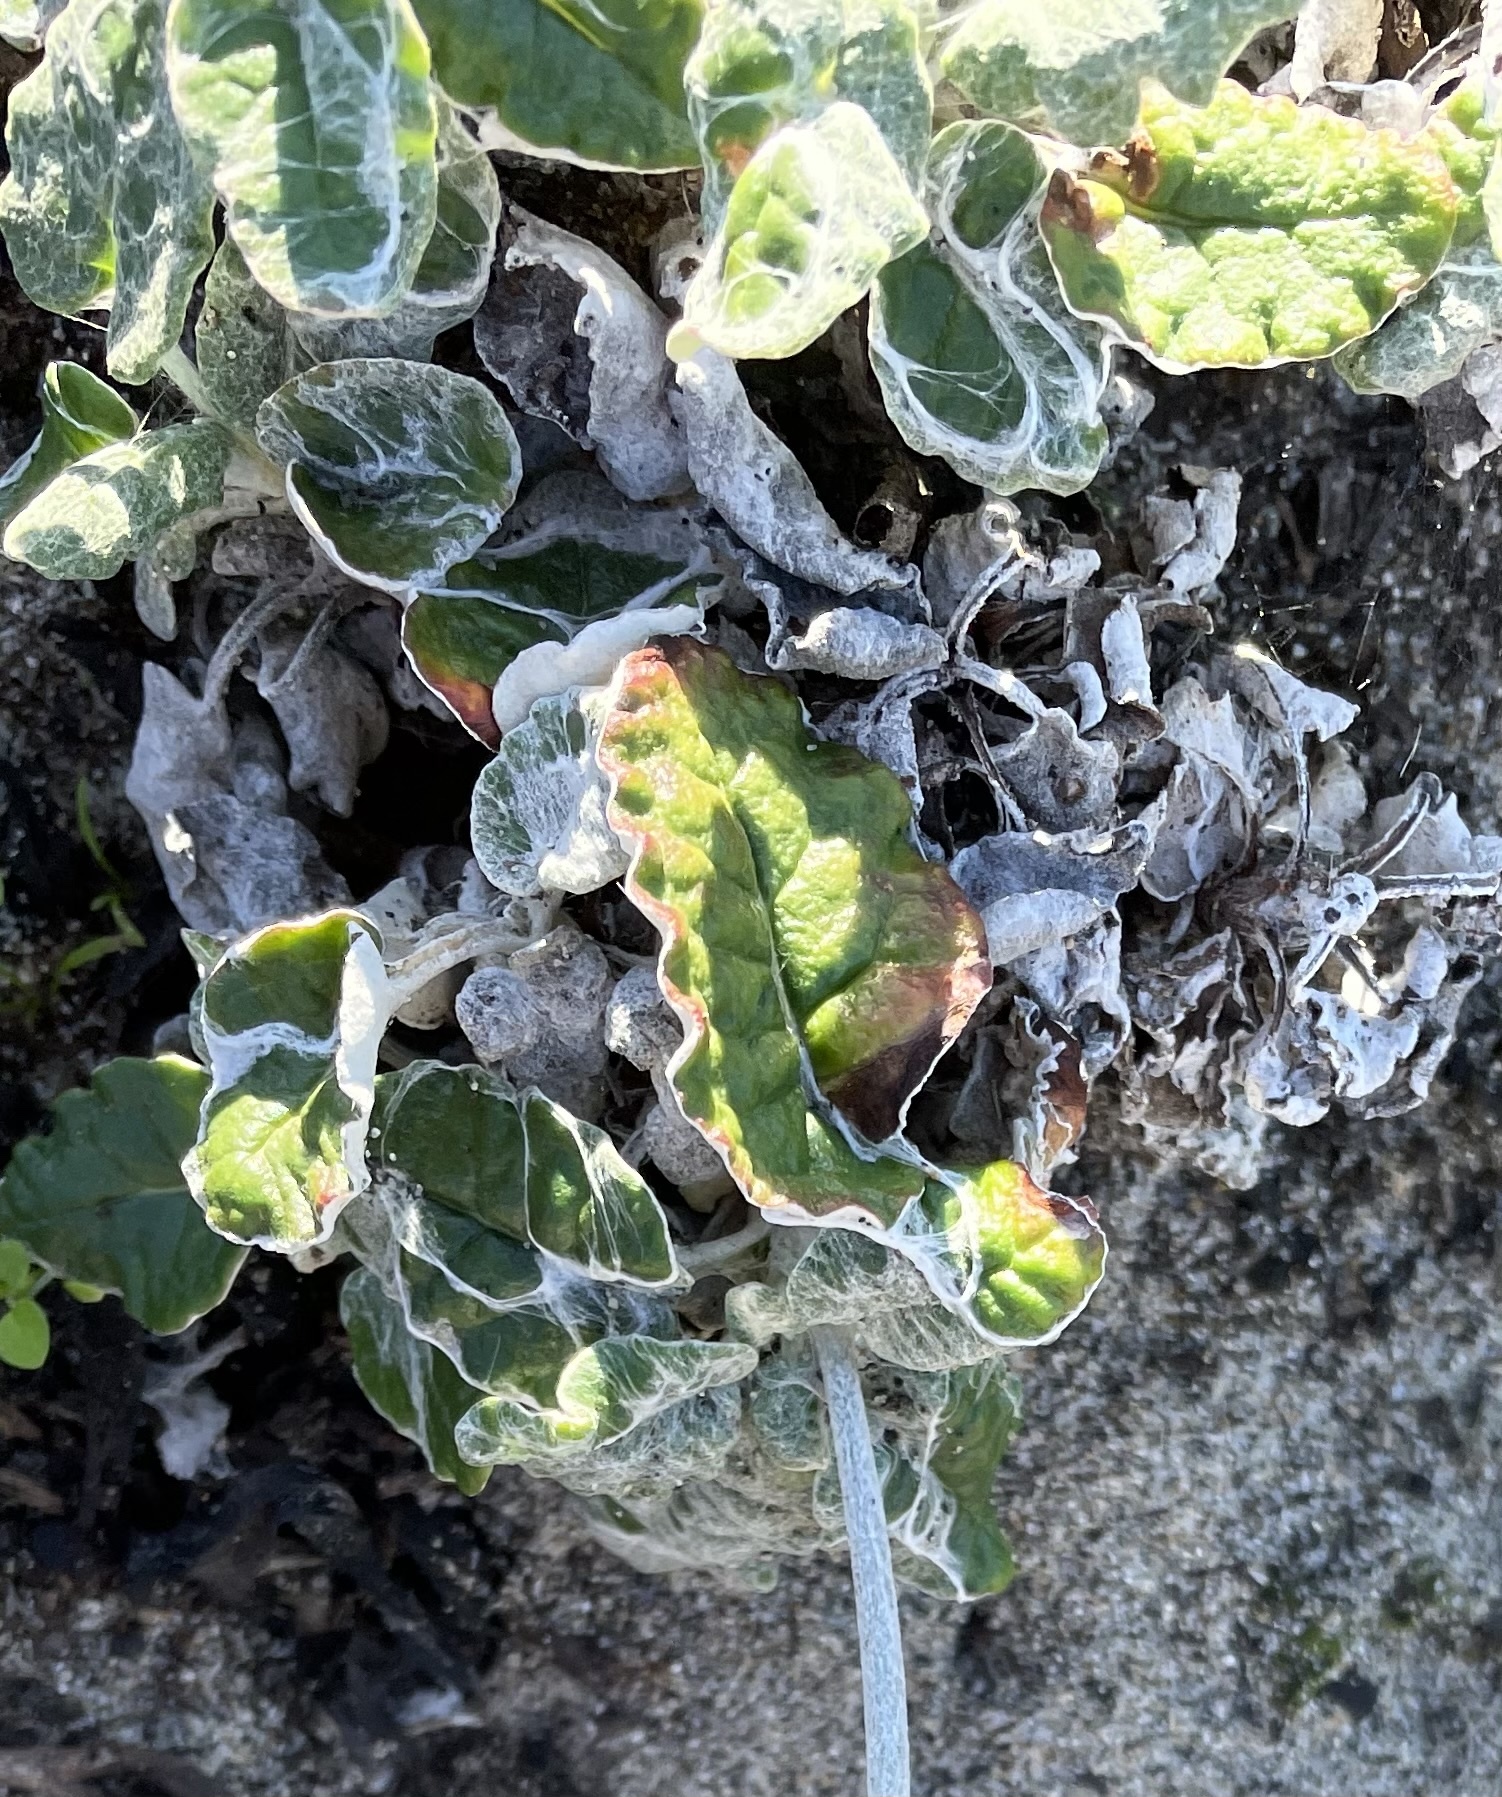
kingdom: Plantae
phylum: Tracheophyta
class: Magnoliopsida
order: Caryophyllales
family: Polygonaceae
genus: Eriogonum
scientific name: Eriogonum latifolium
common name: Seaside wild buckwheat
